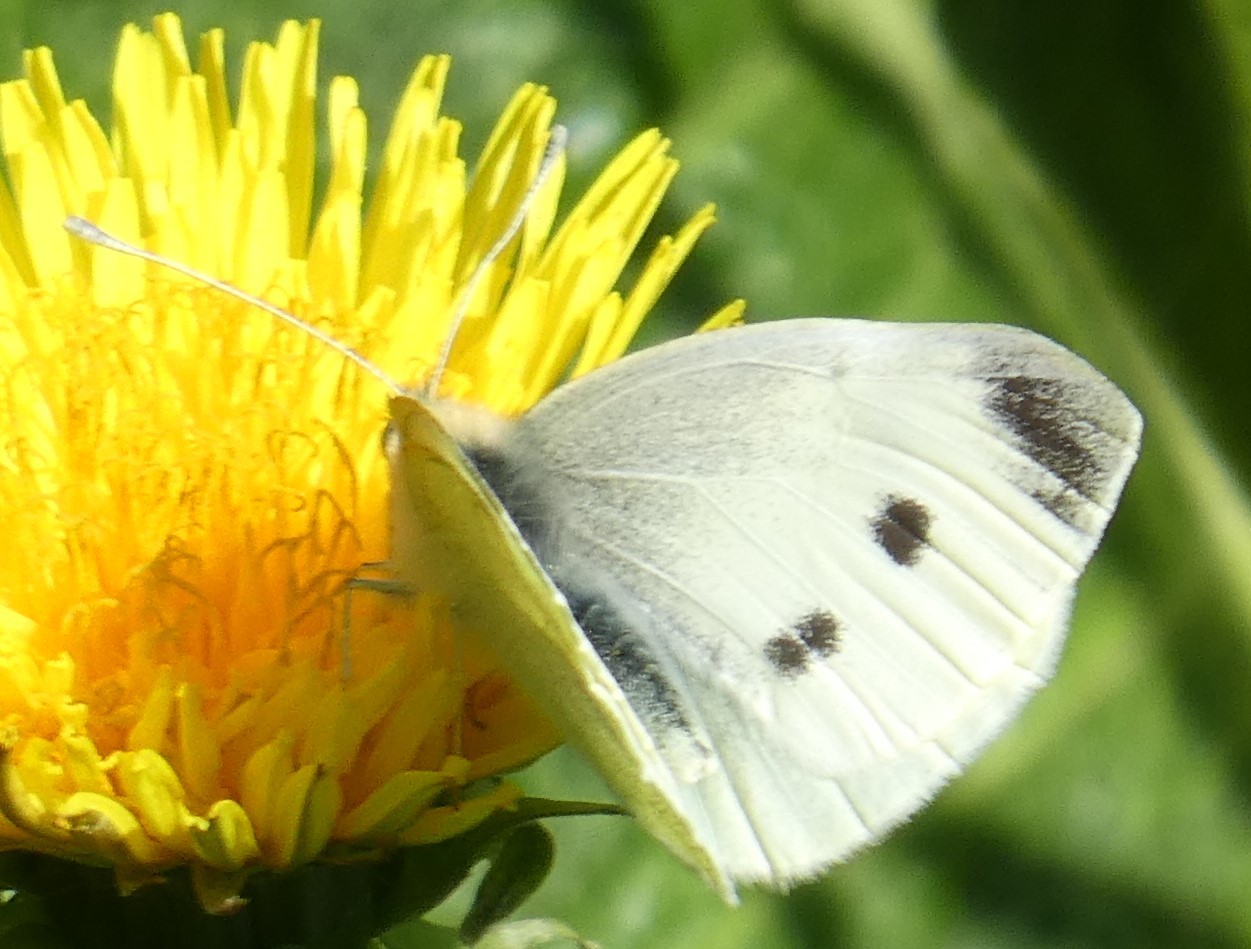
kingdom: Animalia
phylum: Arthropoda
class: Insecta
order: Lepidoptera
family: Pieridae
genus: Pieris
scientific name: Pieris rapae
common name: Small white
